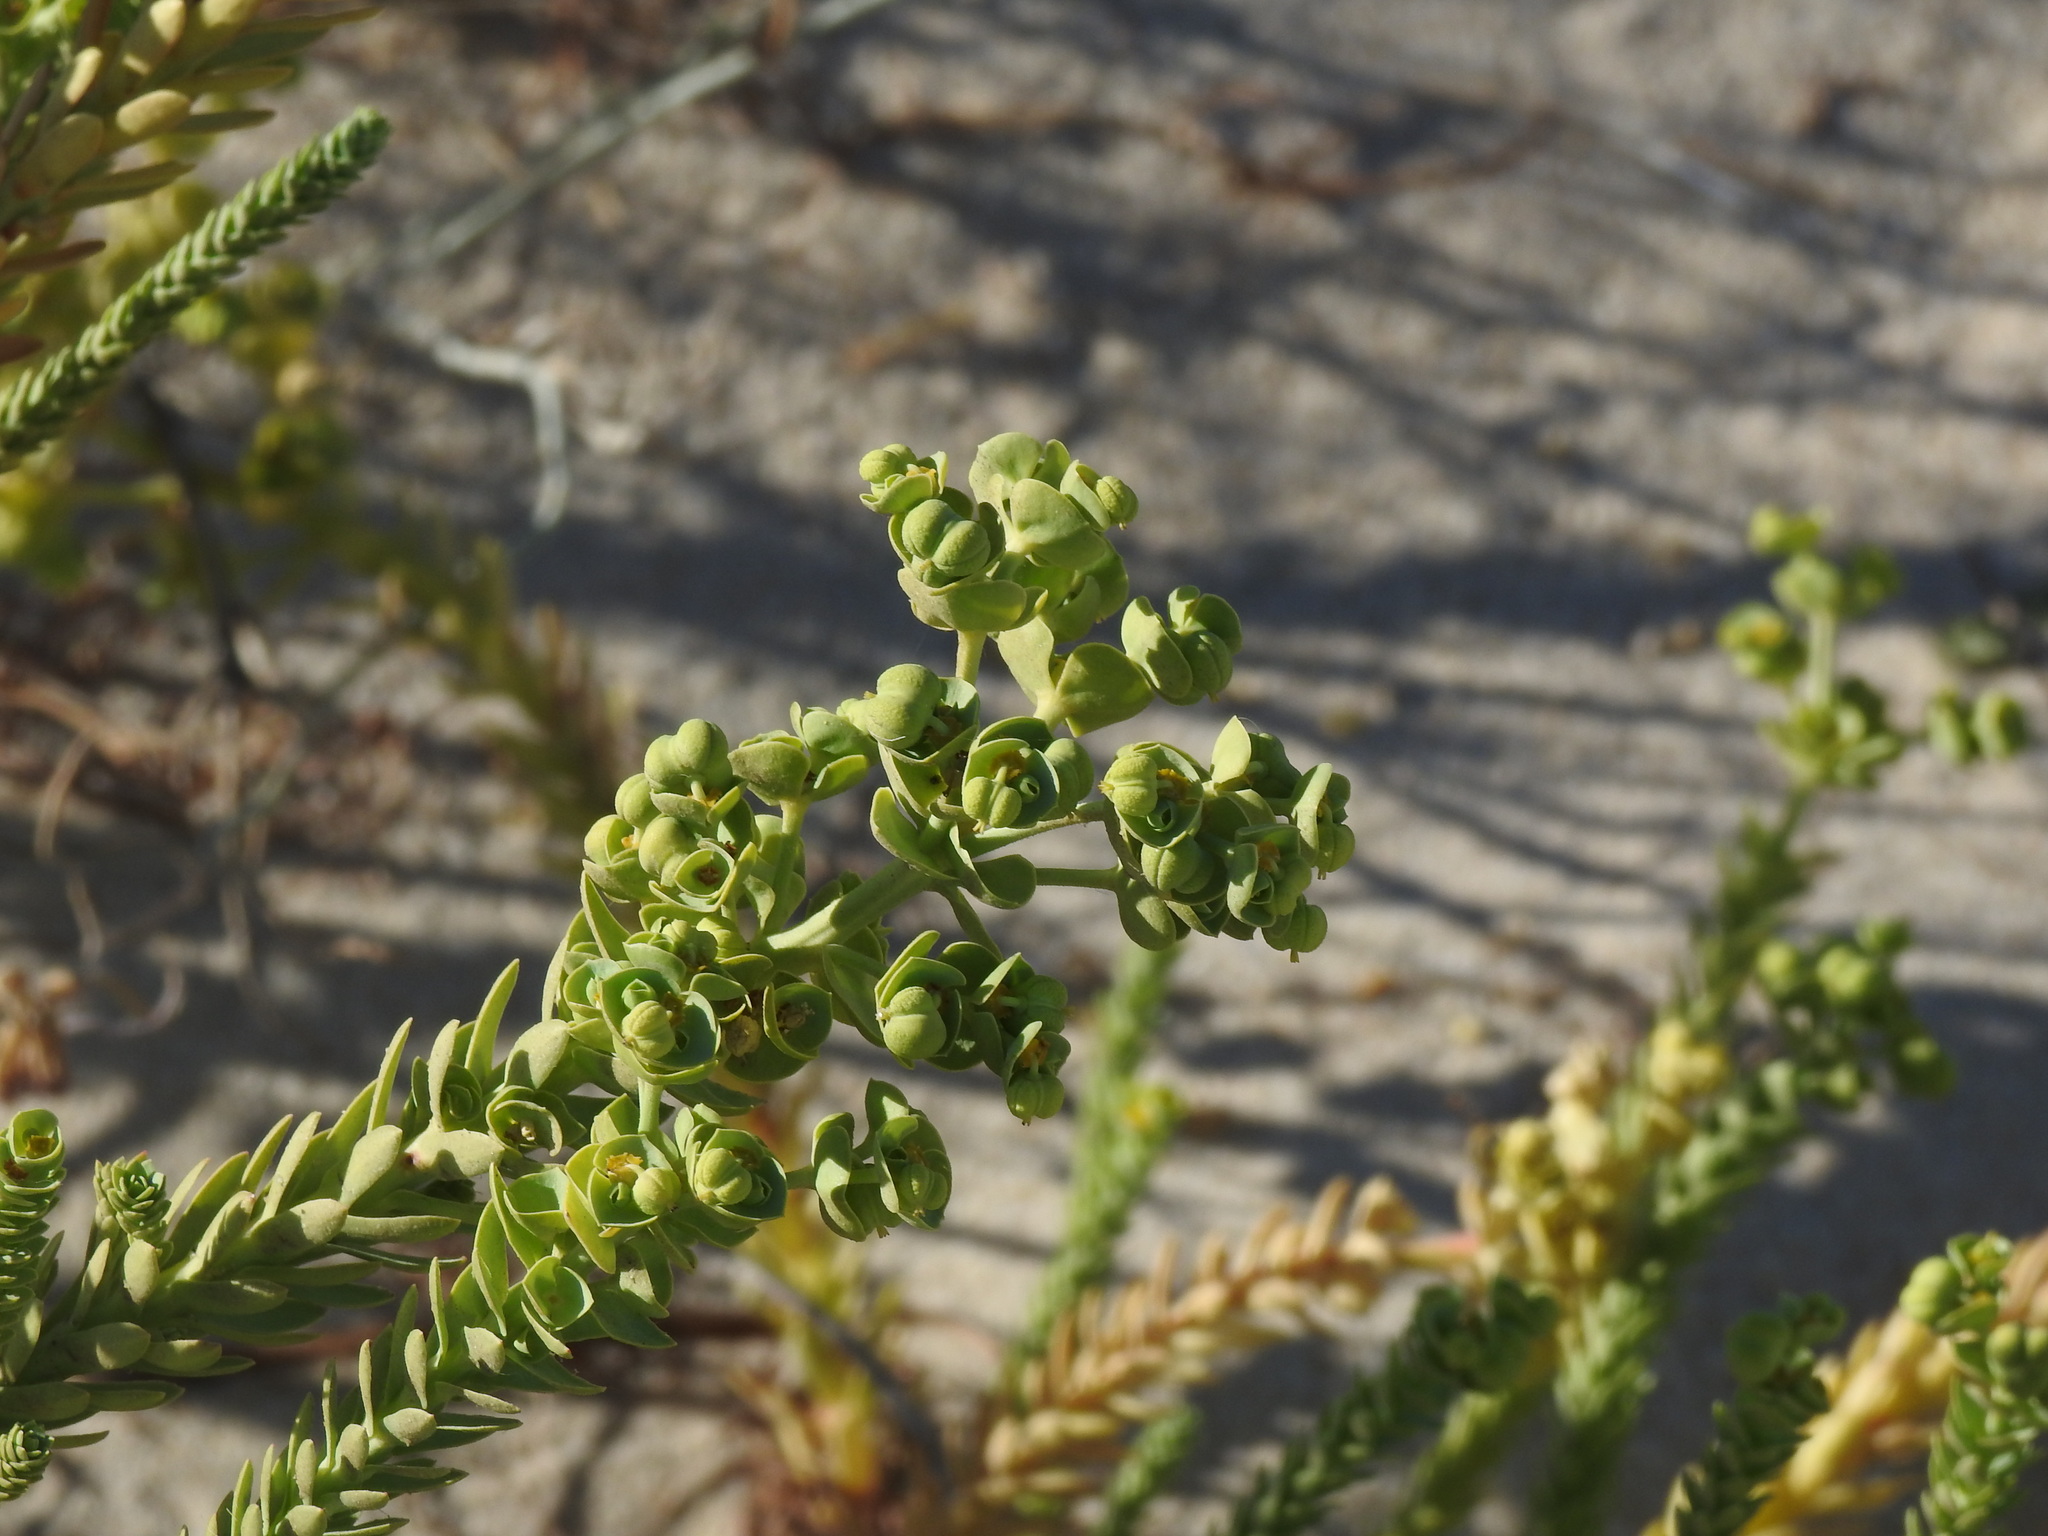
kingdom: Plantae
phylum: Tracheophyta
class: Magnoliopsida
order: Malpighiales
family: Euphorbiaceae
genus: Euphorbia
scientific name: Euphorbia paralias
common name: Sea spurge
